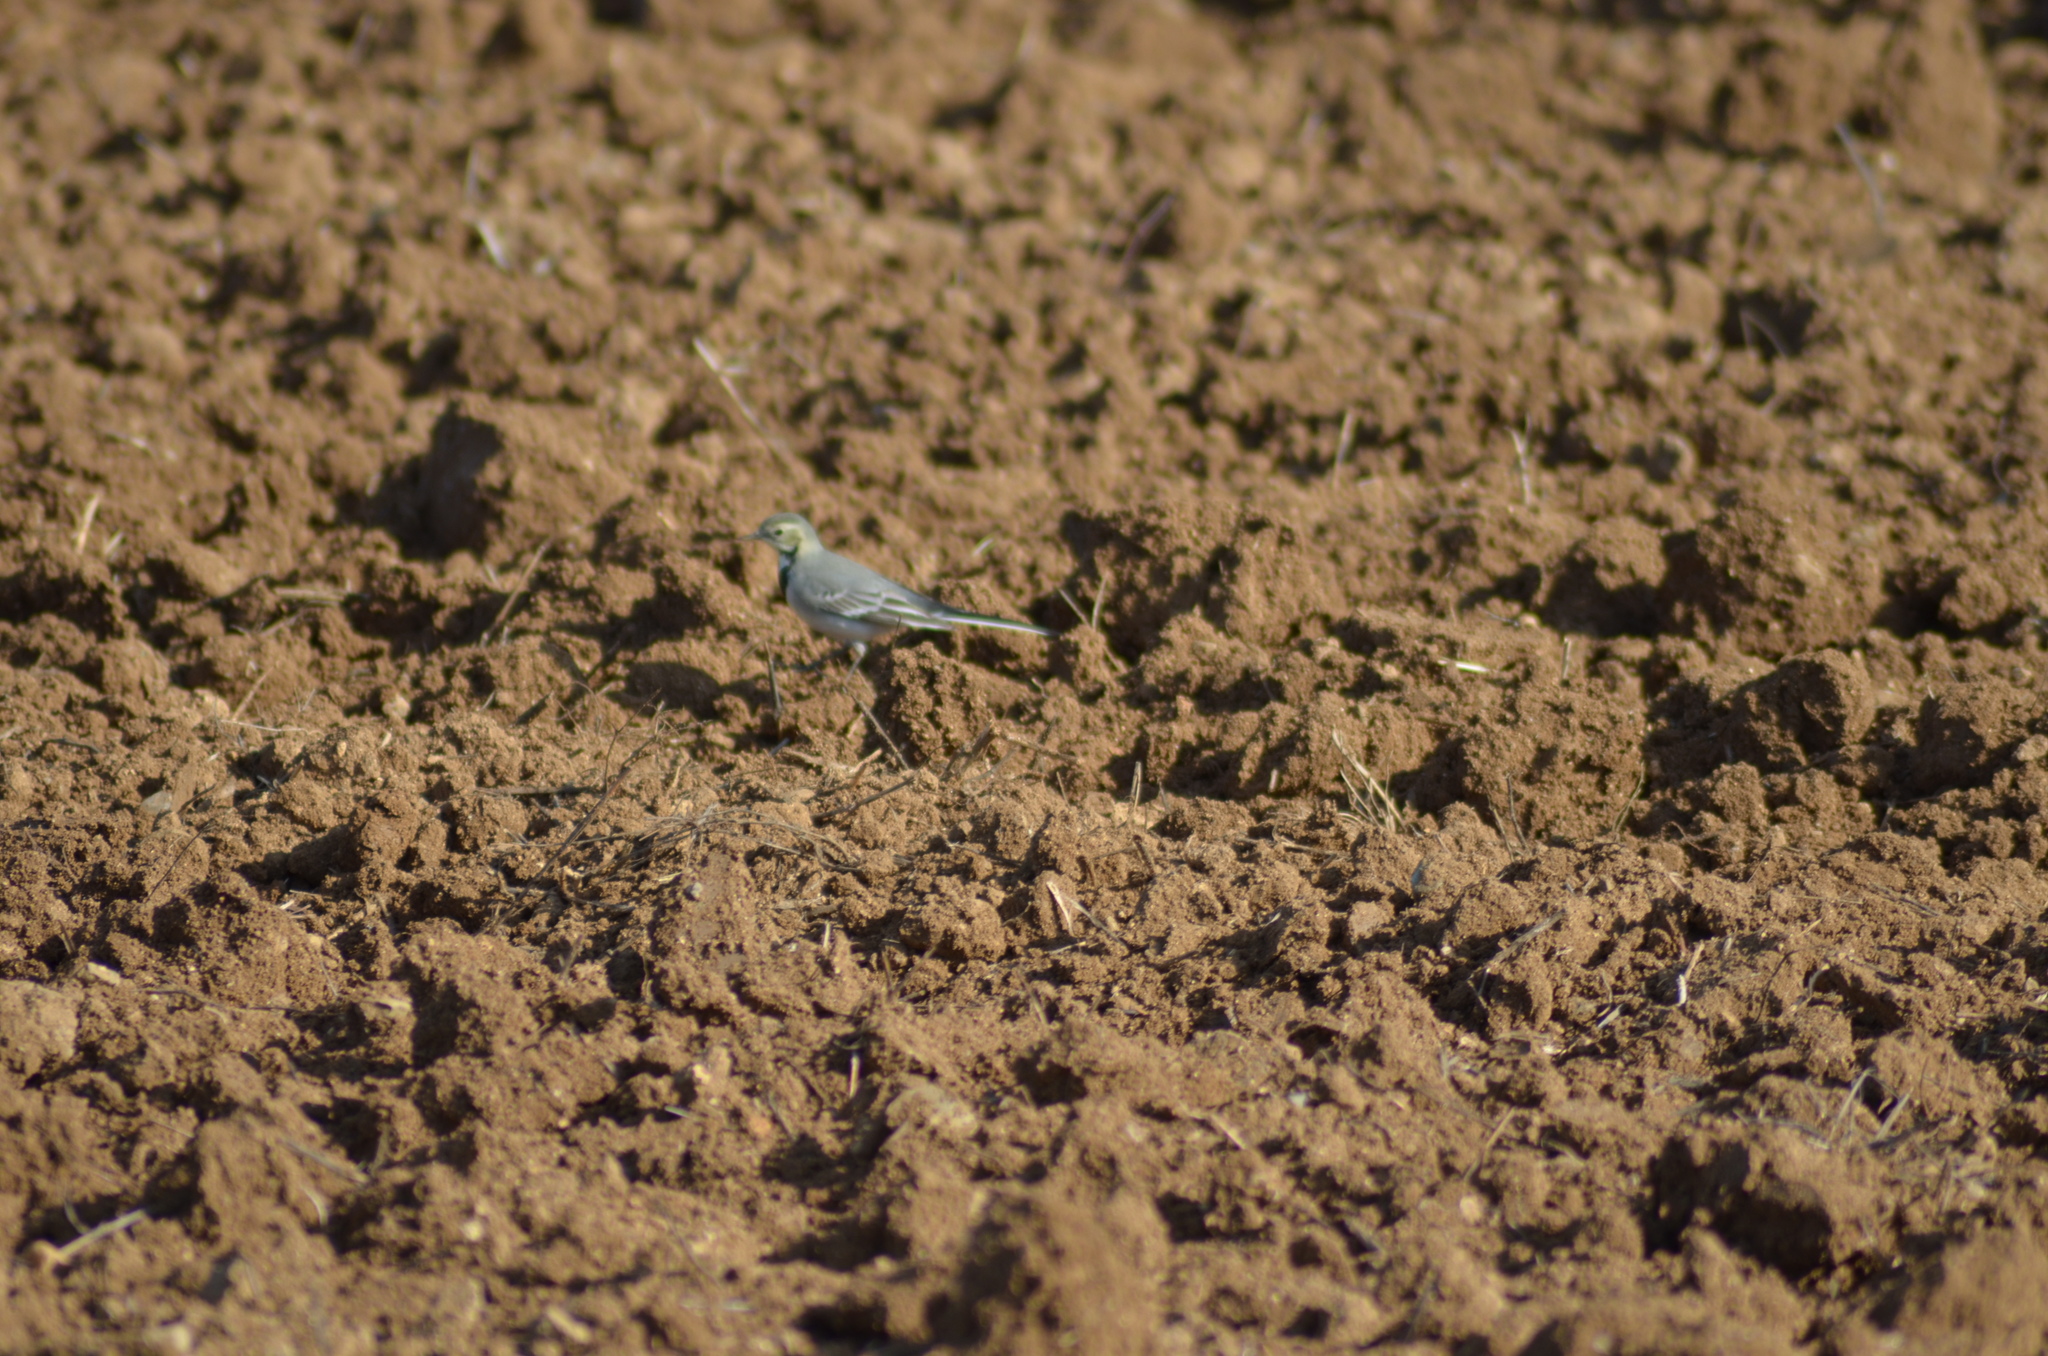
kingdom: Animalia
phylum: Chordata
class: Aves
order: Passeriformes
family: Motacillidae
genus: Motacilla
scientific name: Motacilla alba
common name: White wagtail
